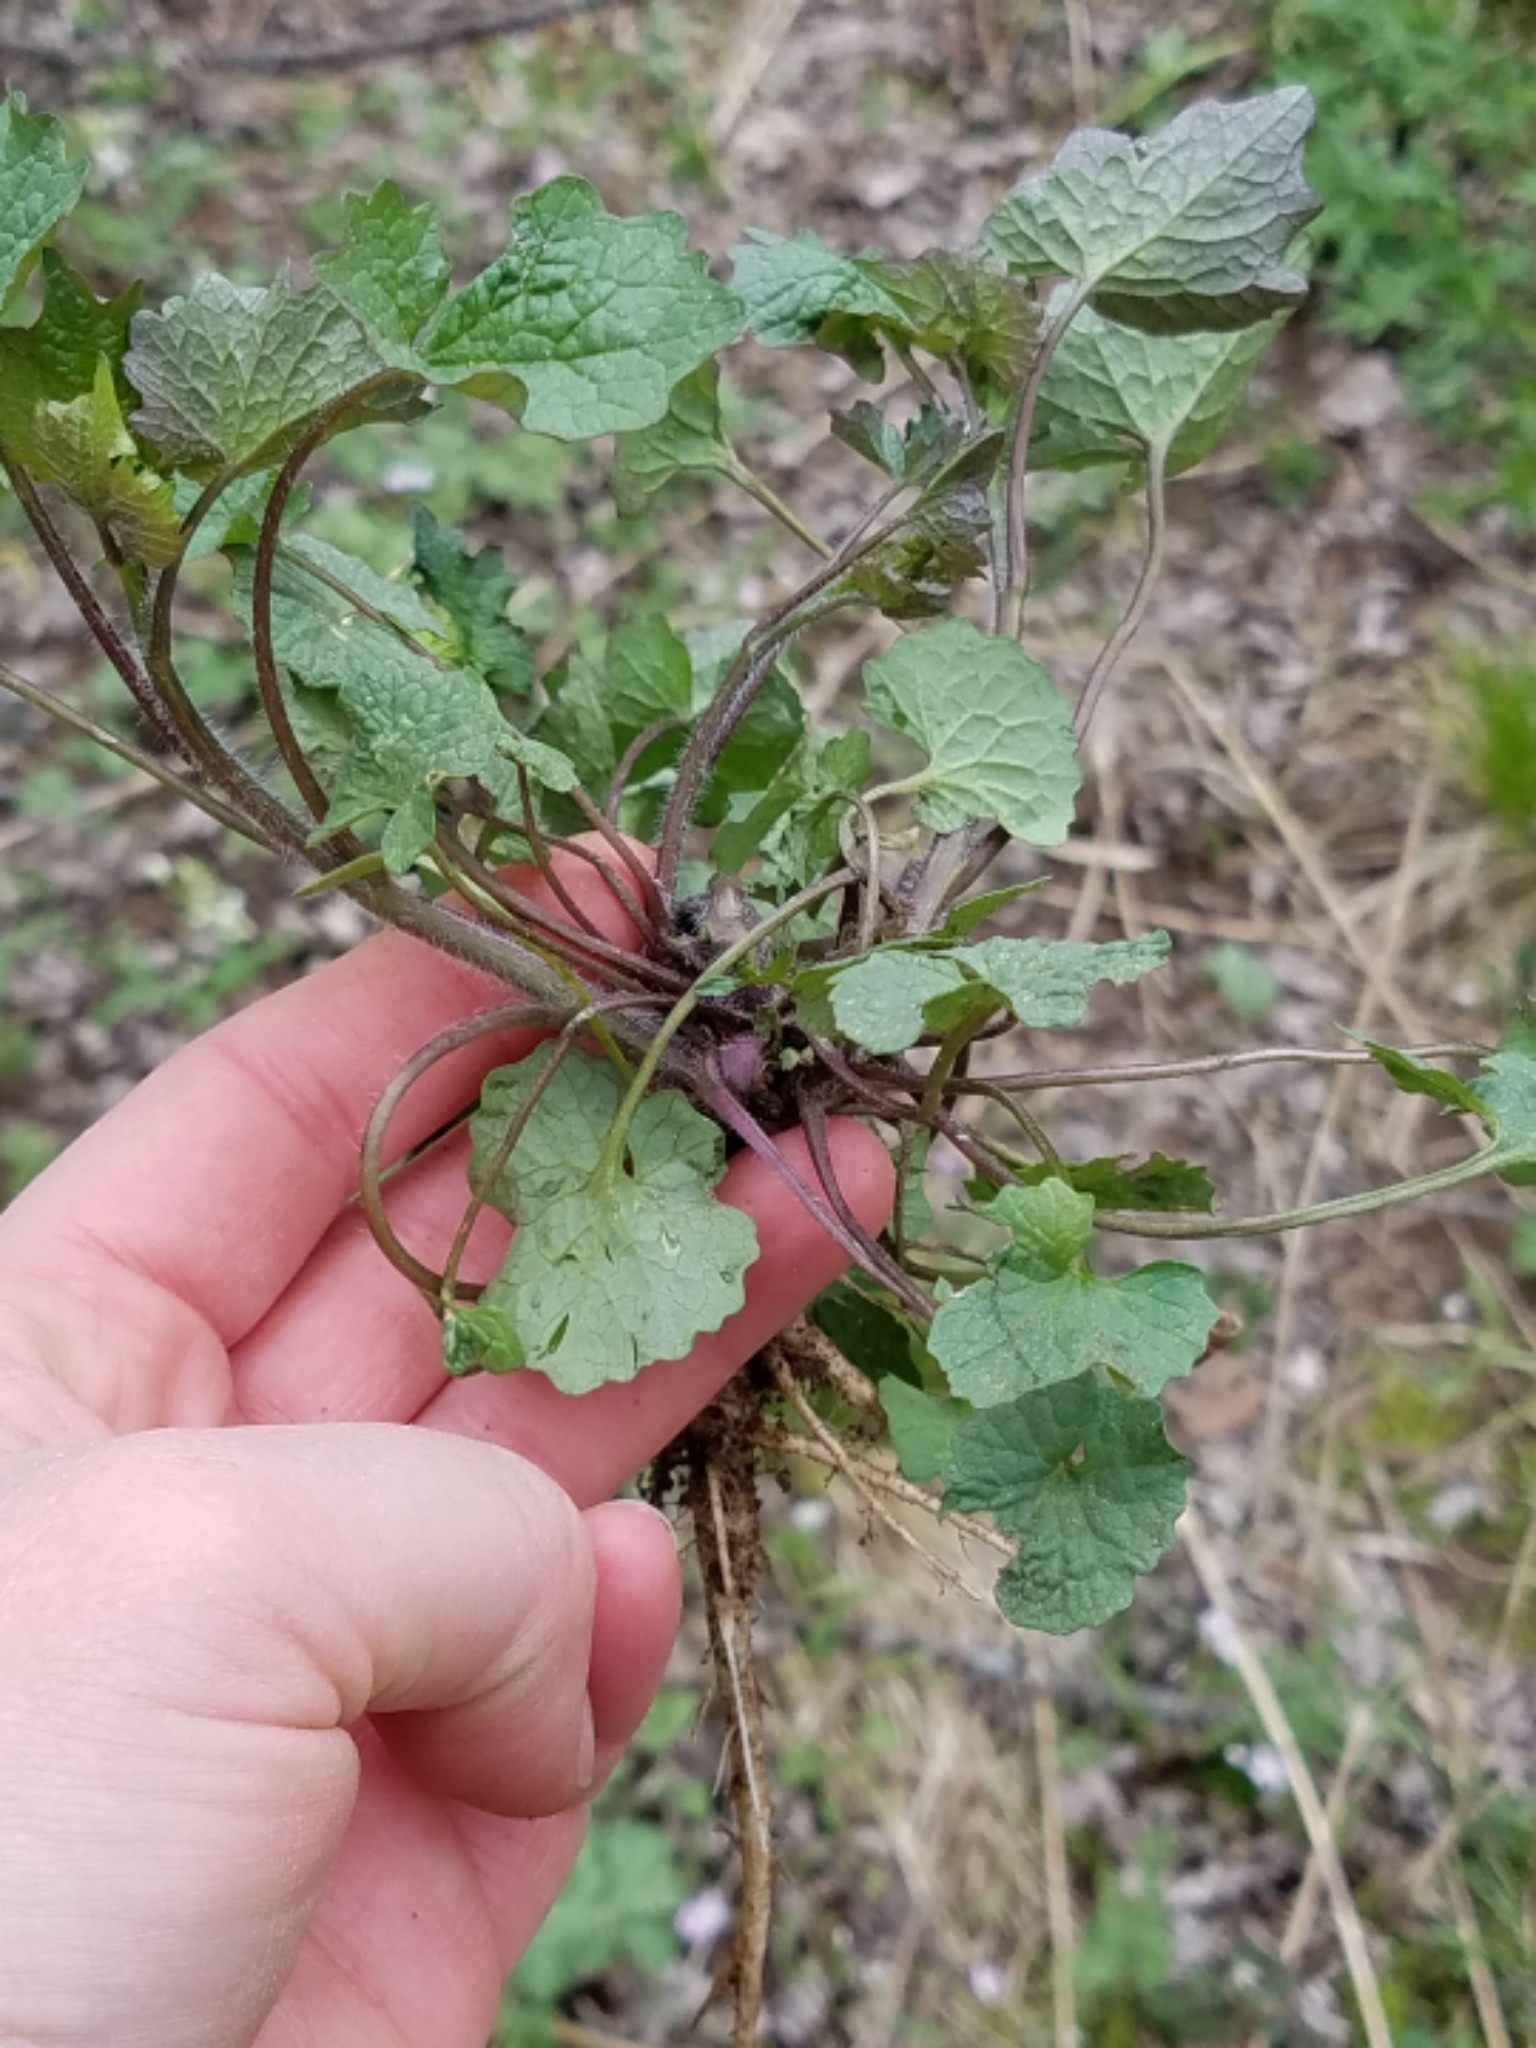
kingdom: Plantae
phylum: Tracheophyta
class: Magnoliopsida
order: Brassicales
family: Brassicaceae
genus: Alliaria
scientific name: Alliaria petiolata
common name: Garlic mustard
